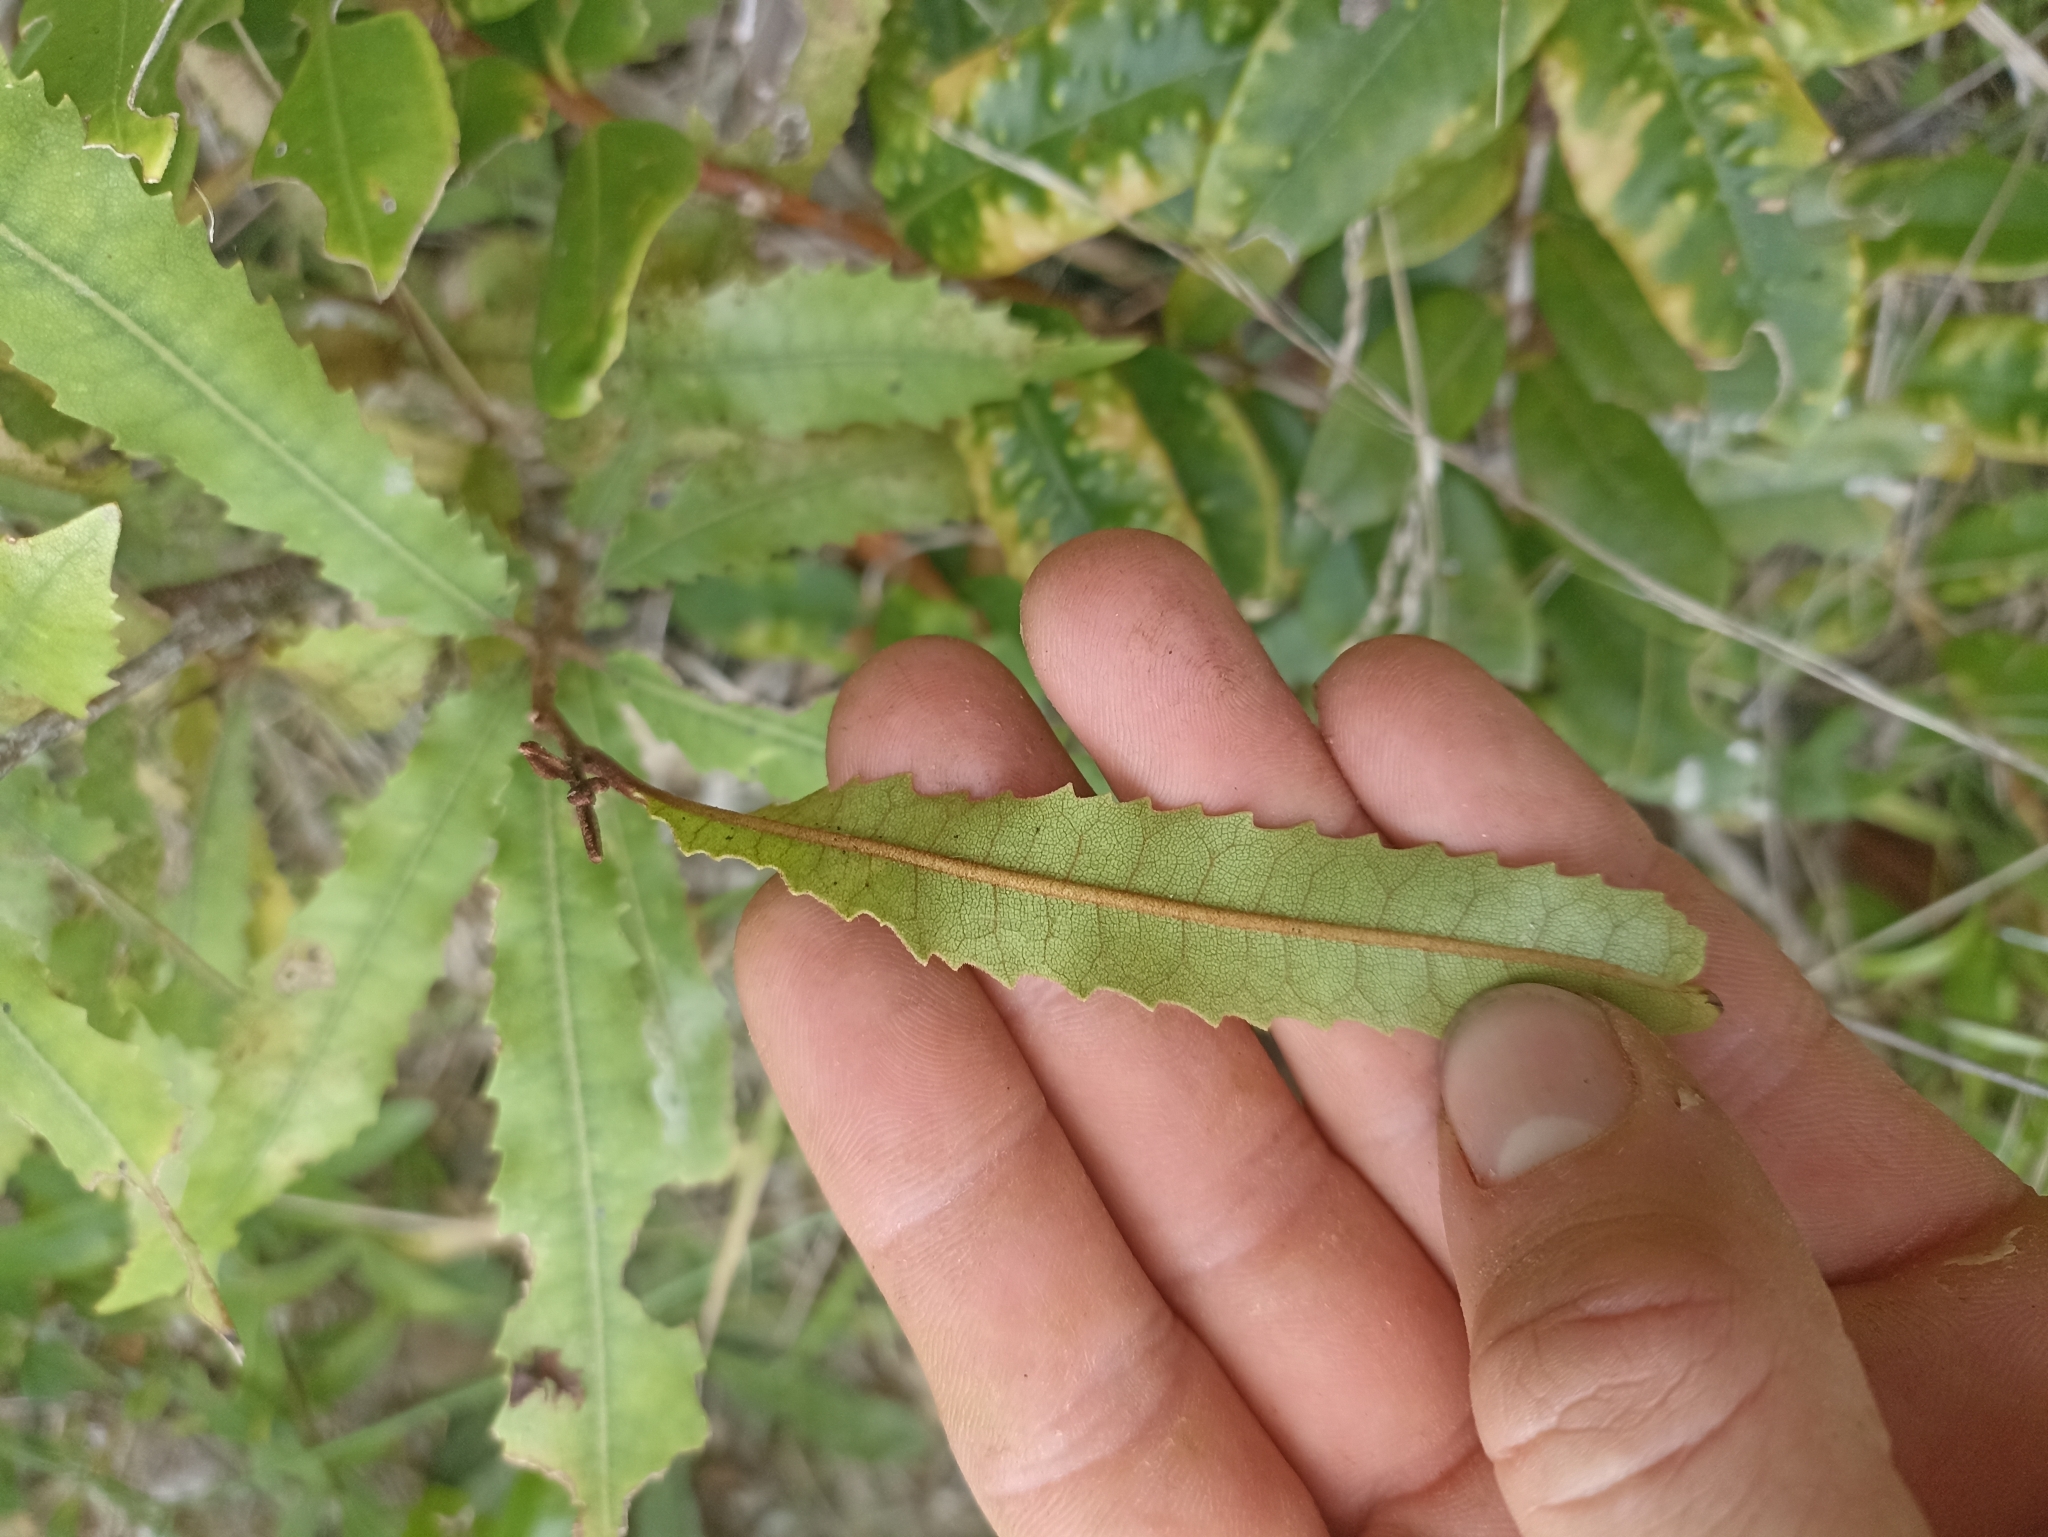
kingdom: Plantae
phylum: Tracheophyta
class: Magnoliopsida
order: Proteales
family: Proteaceae
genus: Knightia
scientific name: Knightia excelsa
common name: New zealand-honeysuckle
